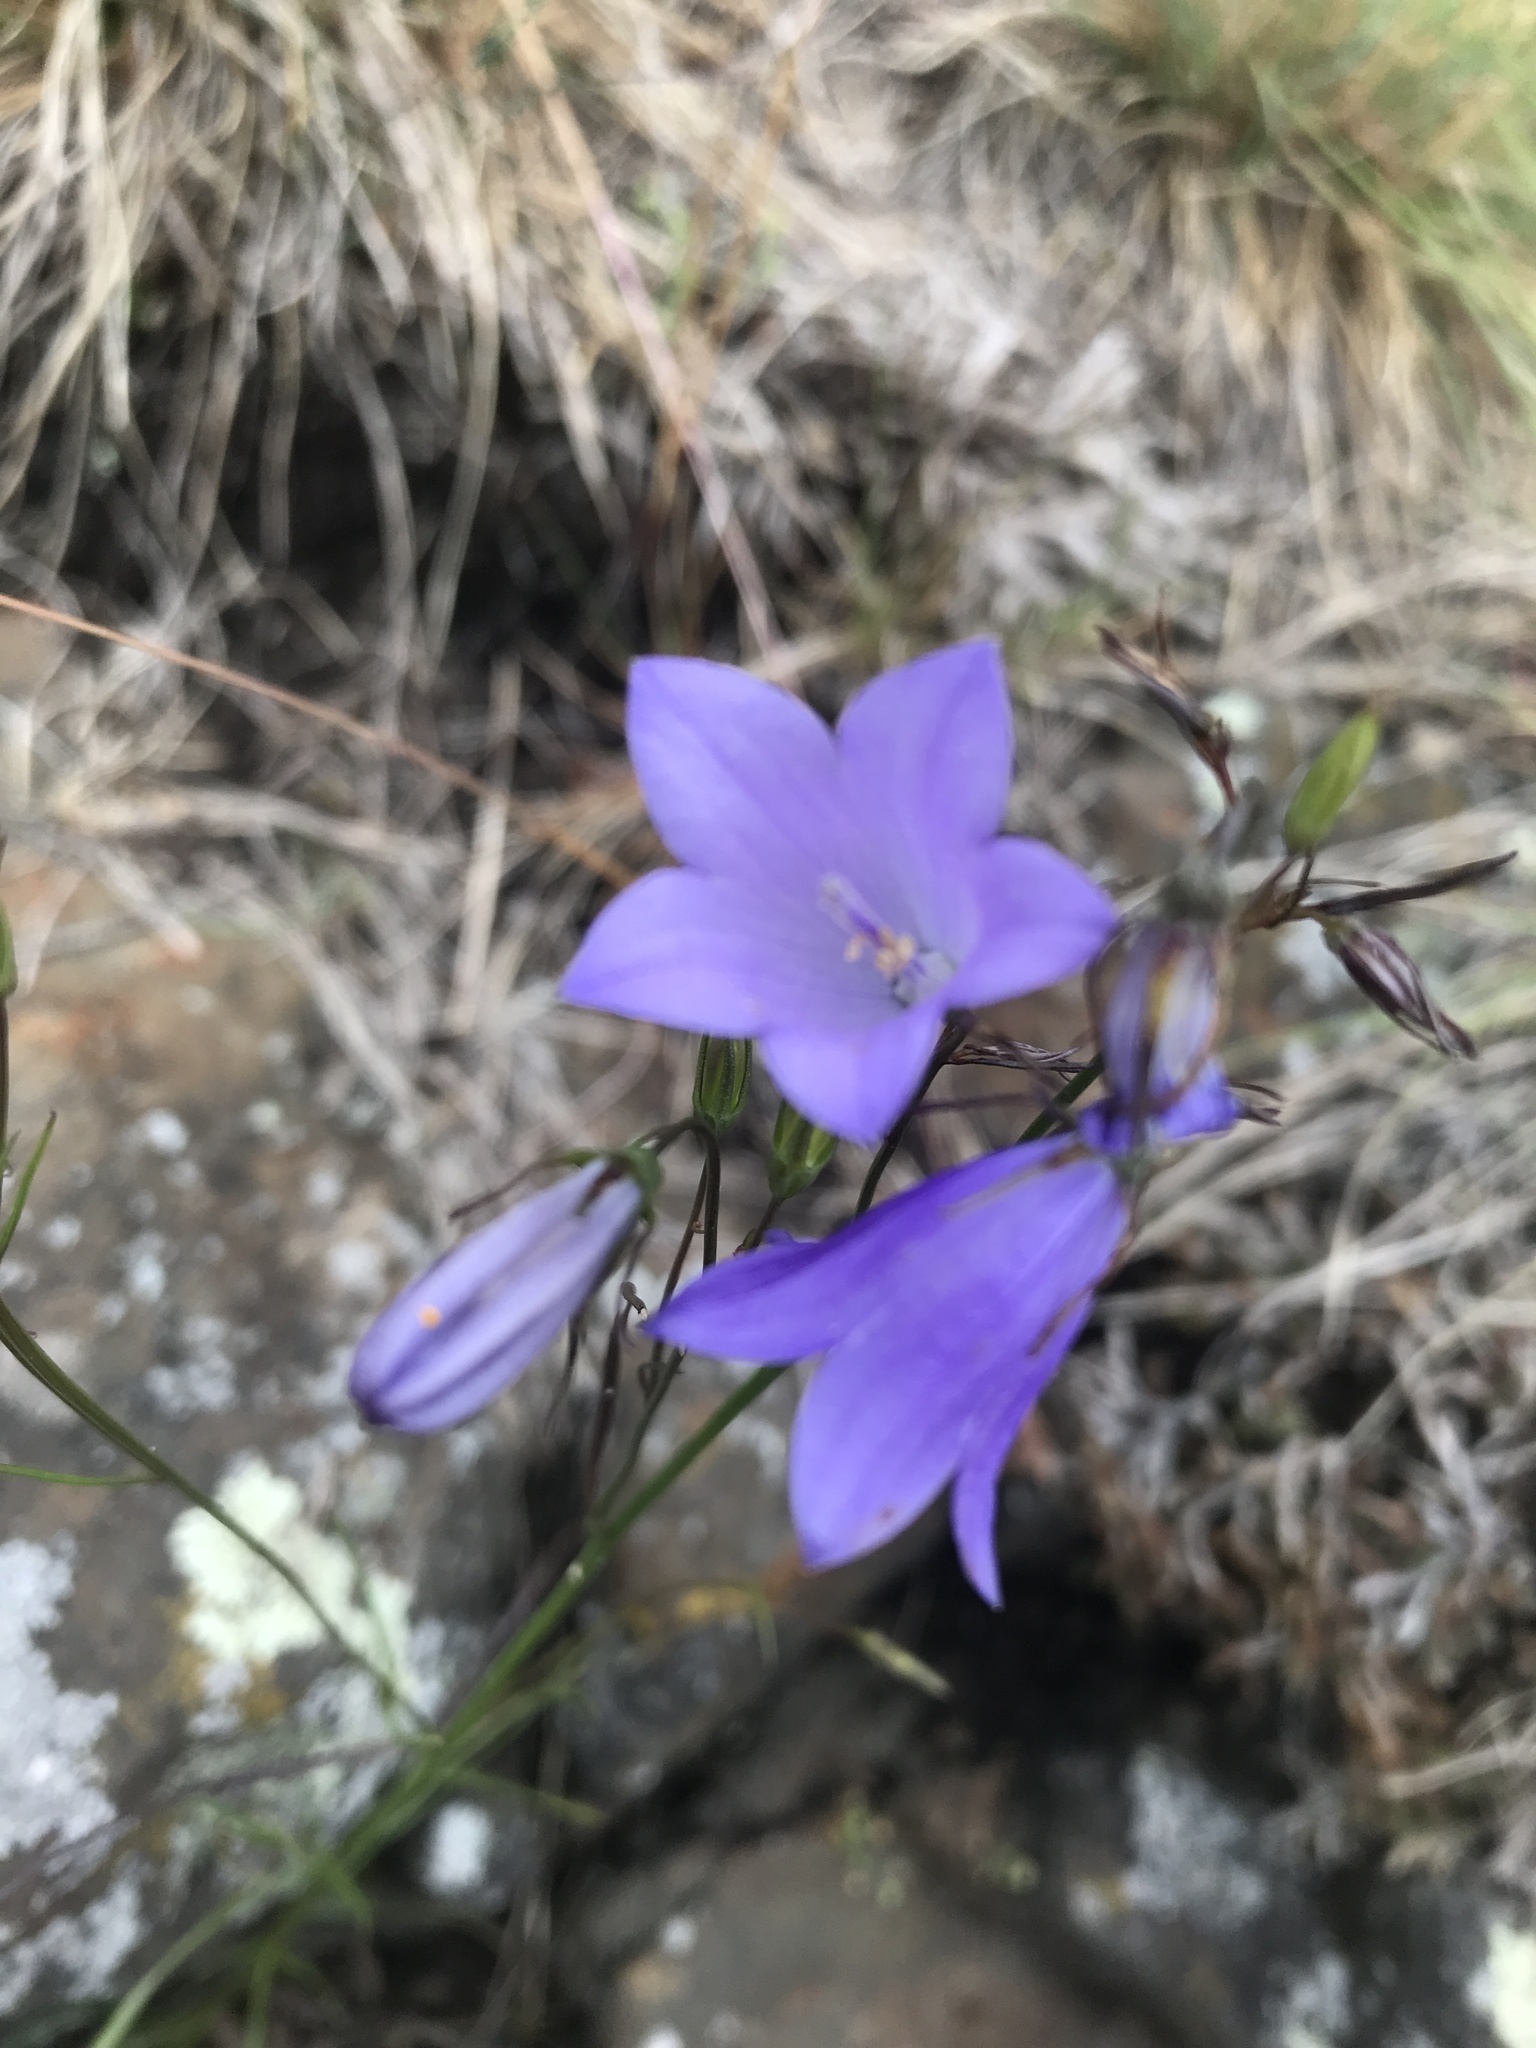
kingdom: Plantae
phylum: Tracheophyta
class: Magnoliopsida
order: Asterales
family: Campanulaceae
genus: Campanula
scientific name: Campanula intercedens
